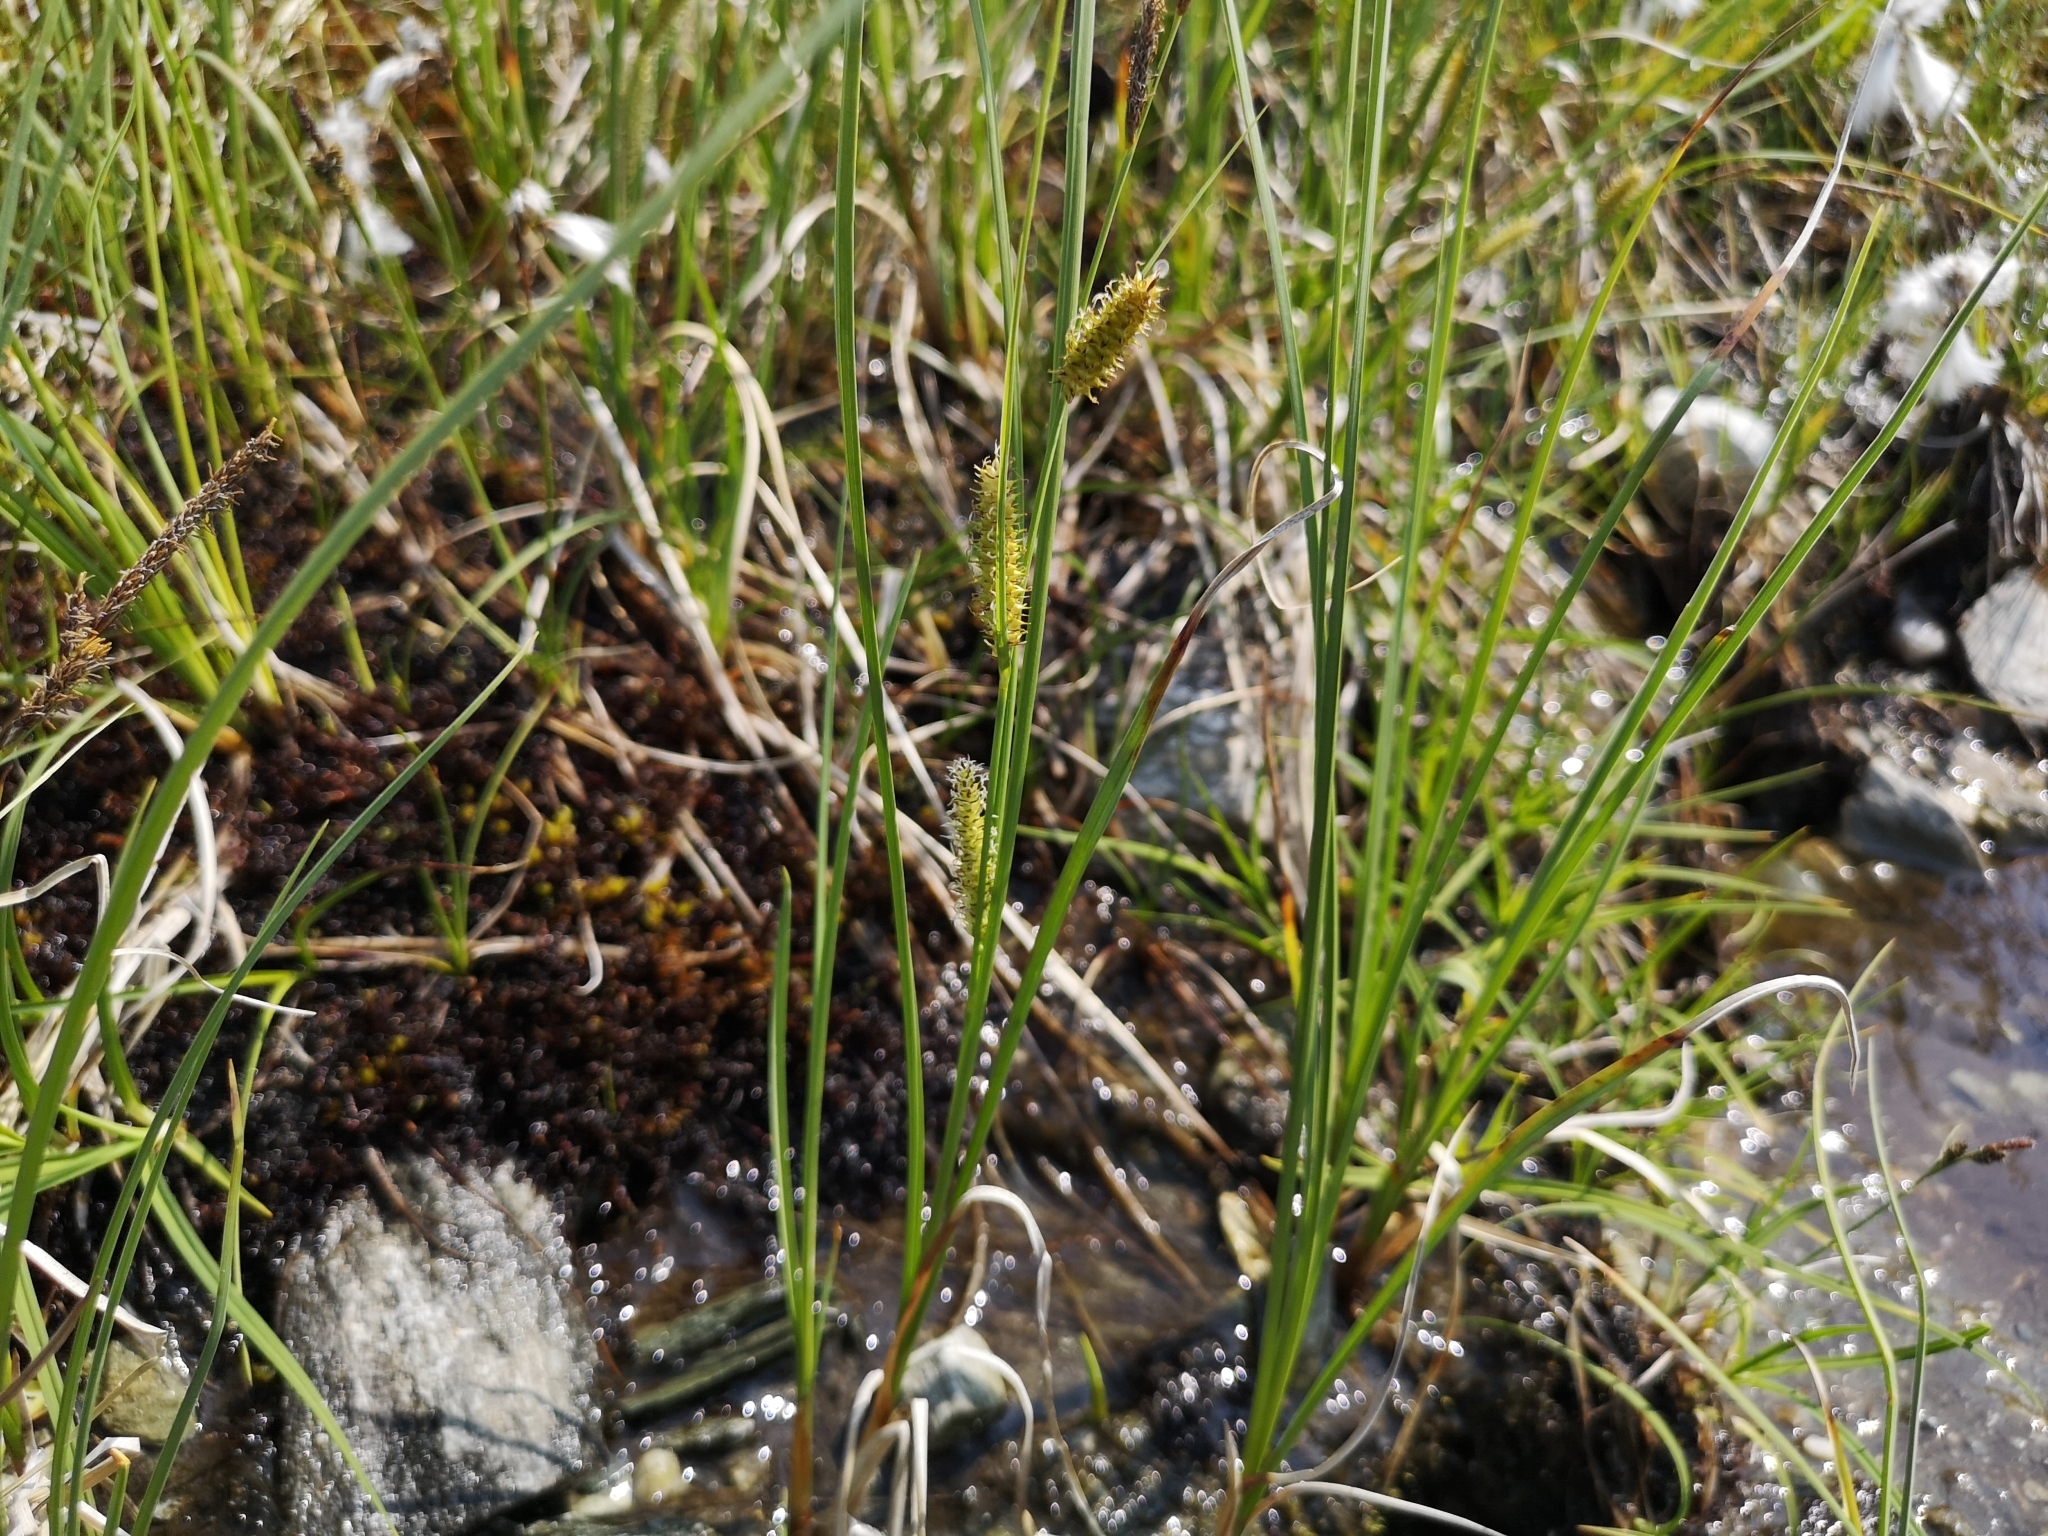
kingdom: Plantae
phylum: Tracheophyta
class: Liliopsida
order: Poales
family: Cyperaceae
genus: Carex
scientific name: Carex rostrata
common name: Bottle sedge
